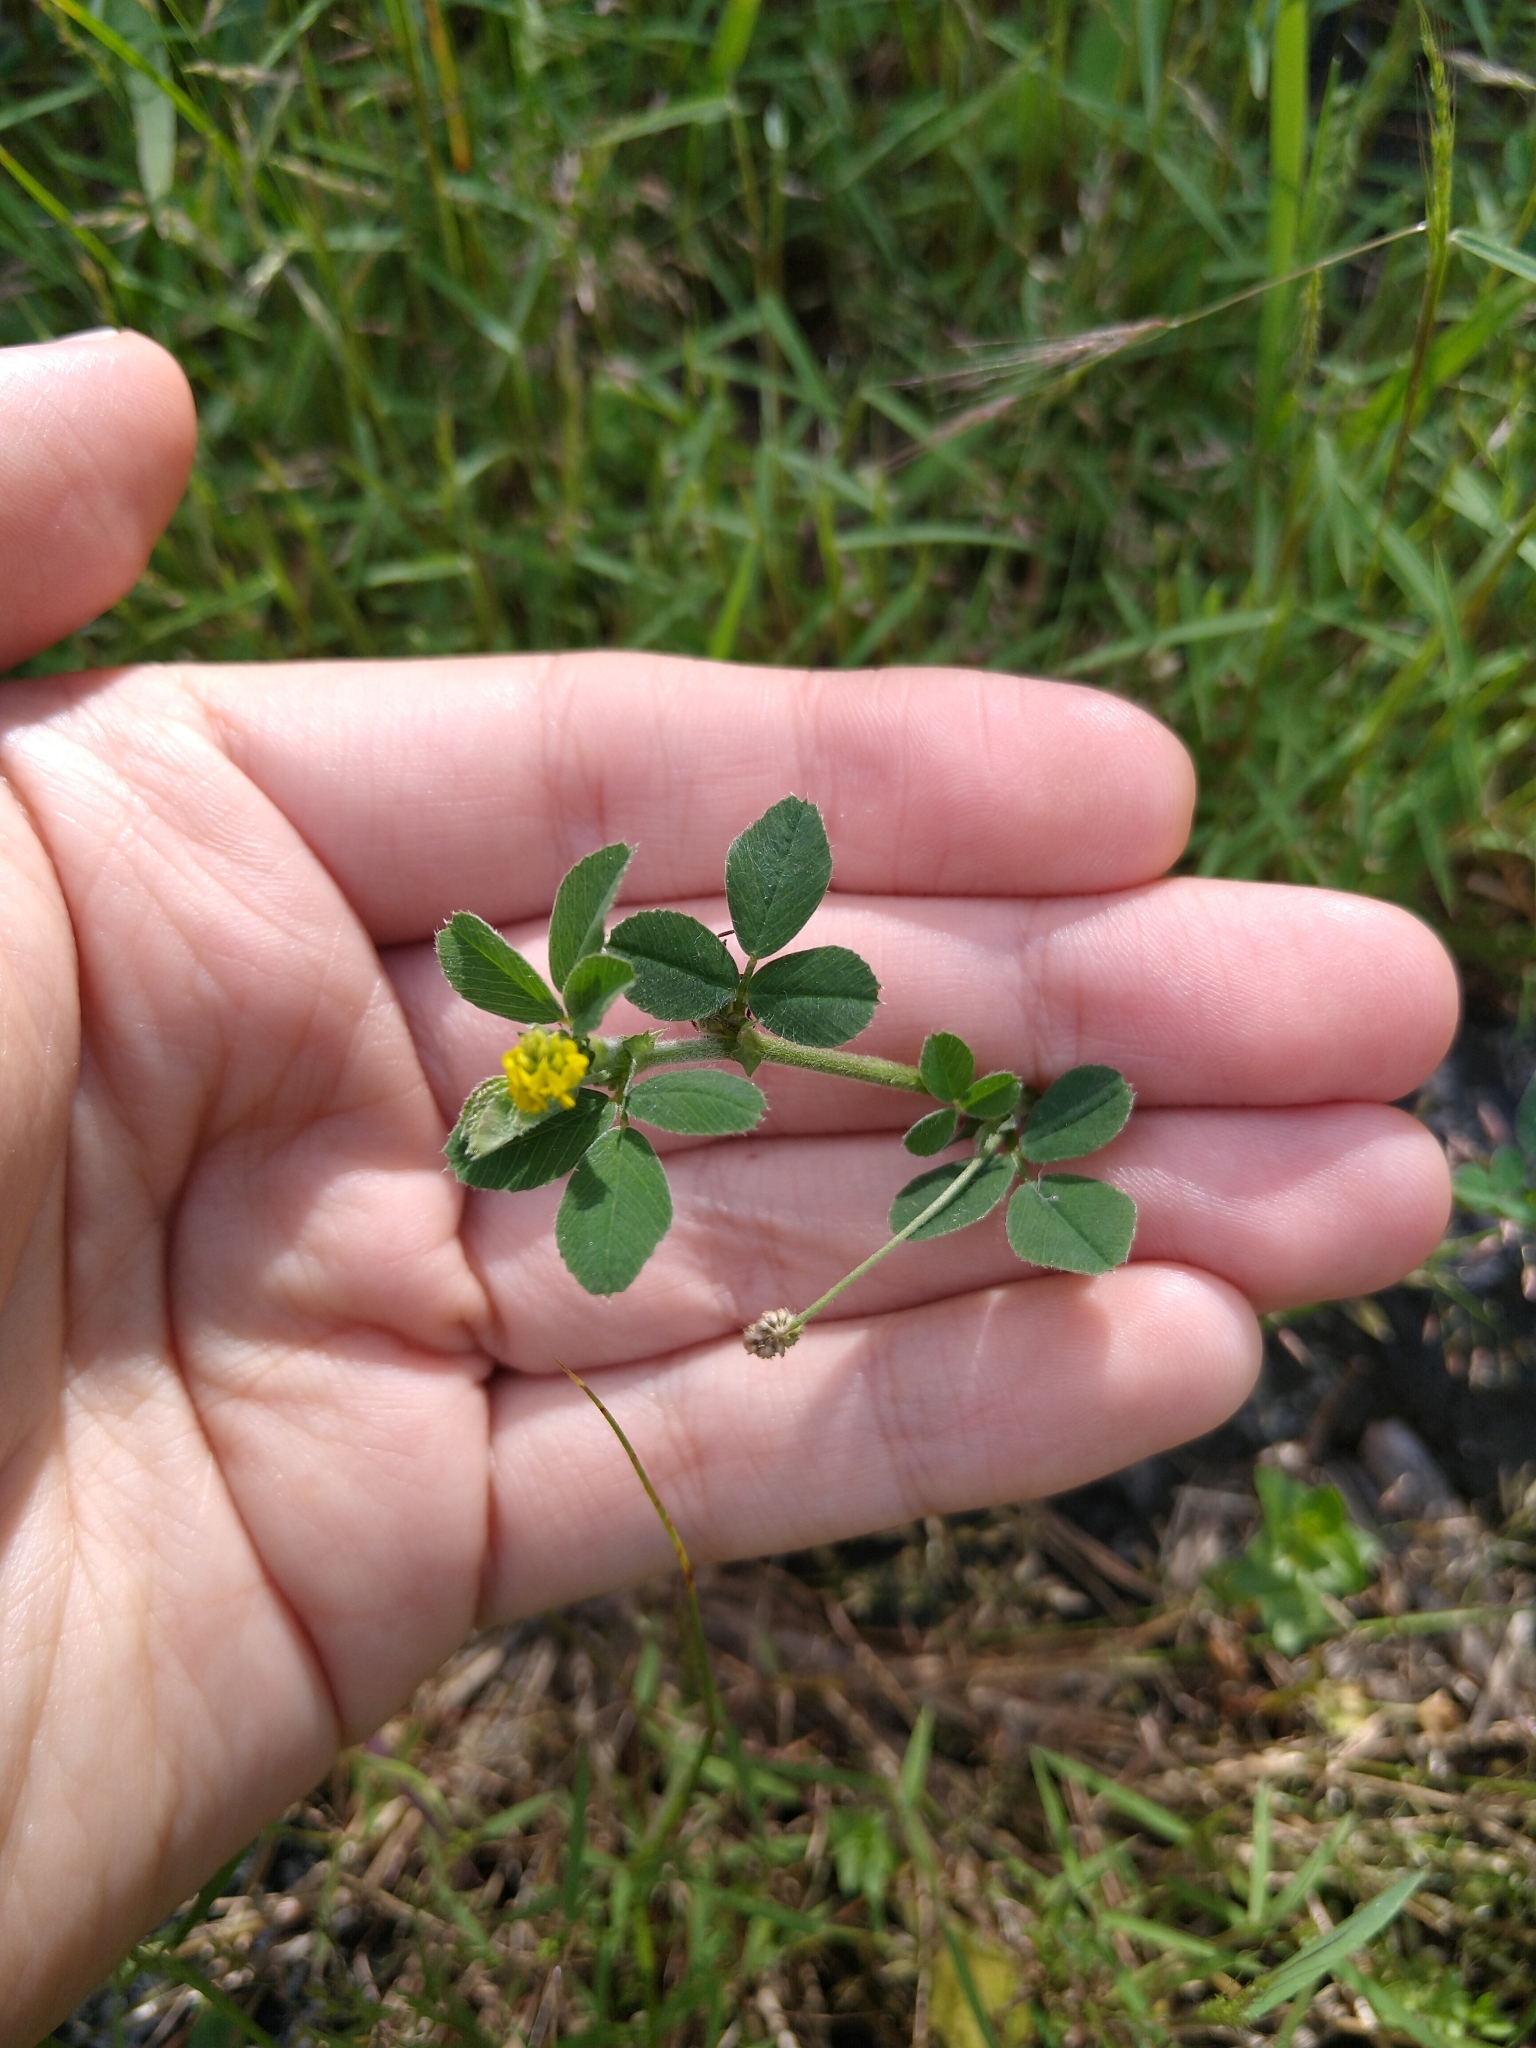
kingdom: Plantae
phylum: Tracheophyta
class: Magnoliopsida
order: Fabales
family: Fabaceae
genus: Medicago
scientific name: Medicago lupulina
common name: Black medick
